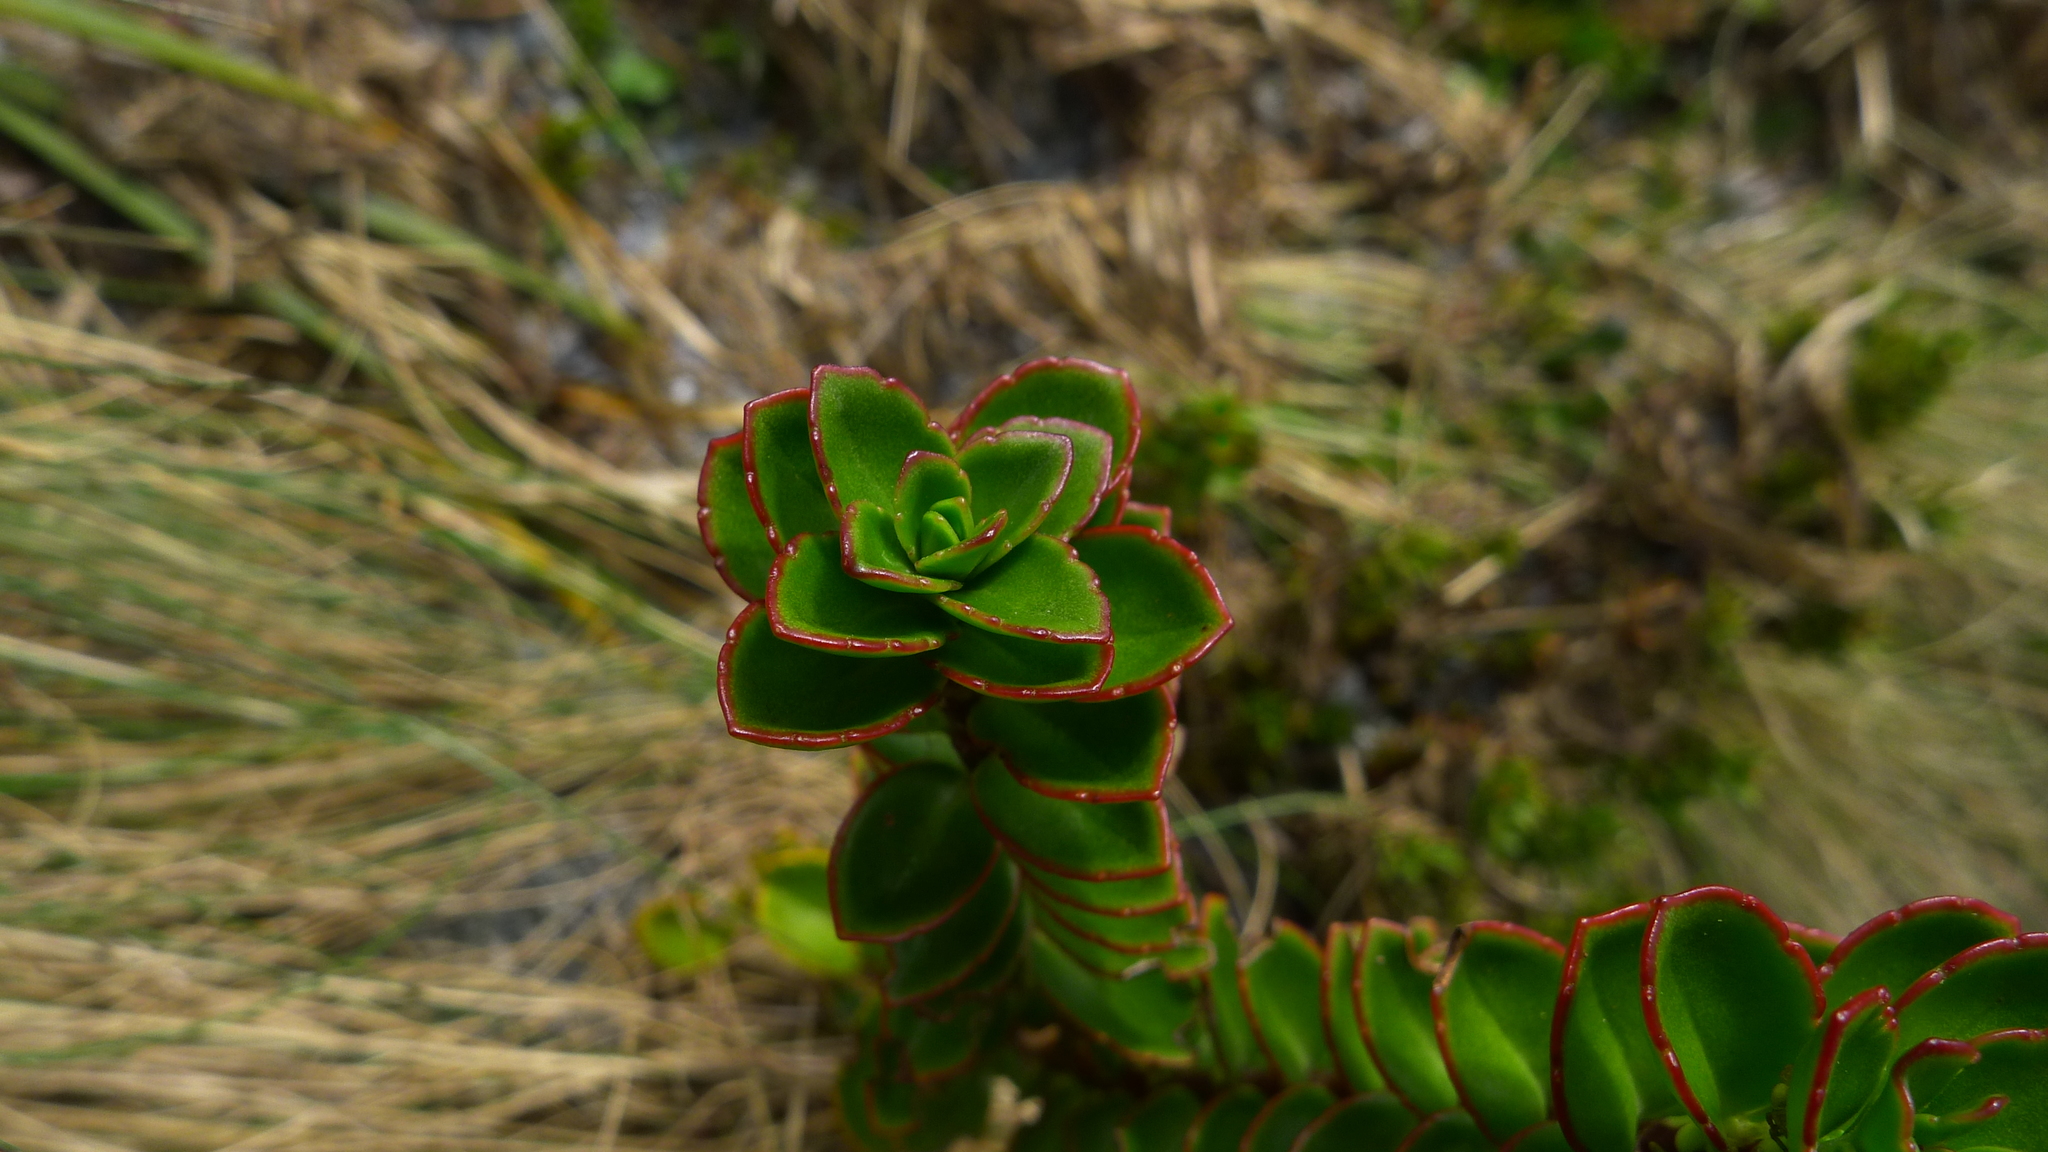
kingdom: Plantae
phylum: Tracheophyta
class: Magnoliopsida
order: Lamiales
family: Plantaginaceae
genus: Veronica
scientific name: Veronica macrantha
